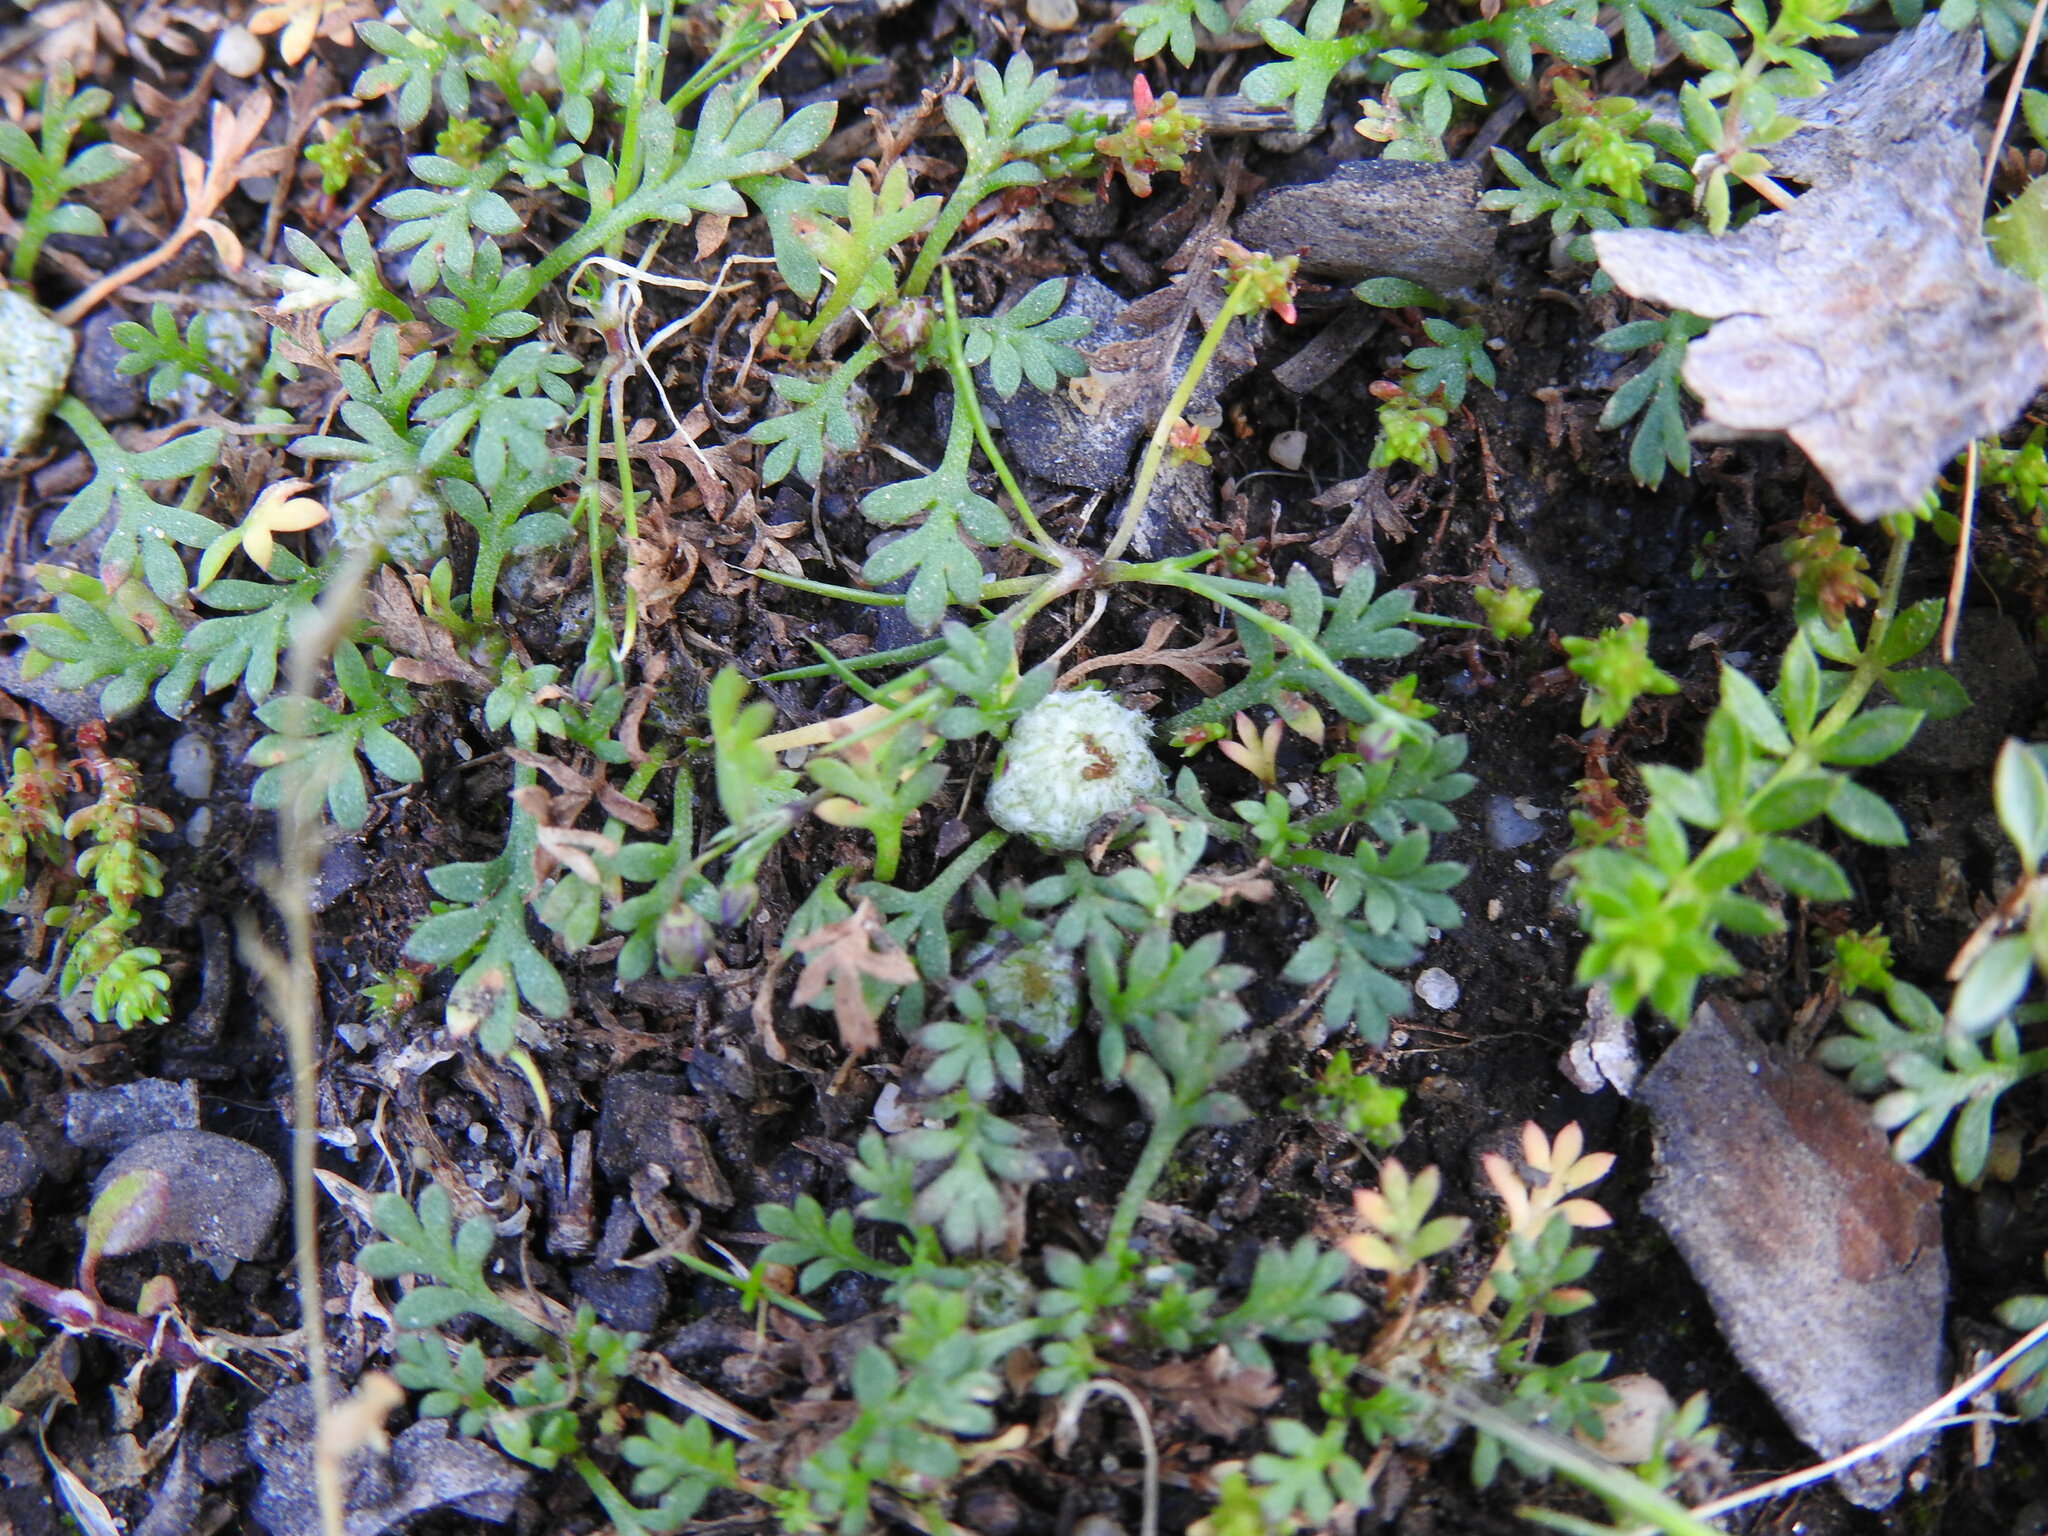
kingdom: Plantae
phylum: Tracheophyta
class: Magnoliopsida
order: Asterales
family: Asteraceae
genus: Soliva
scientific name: Soliva stolonifera
